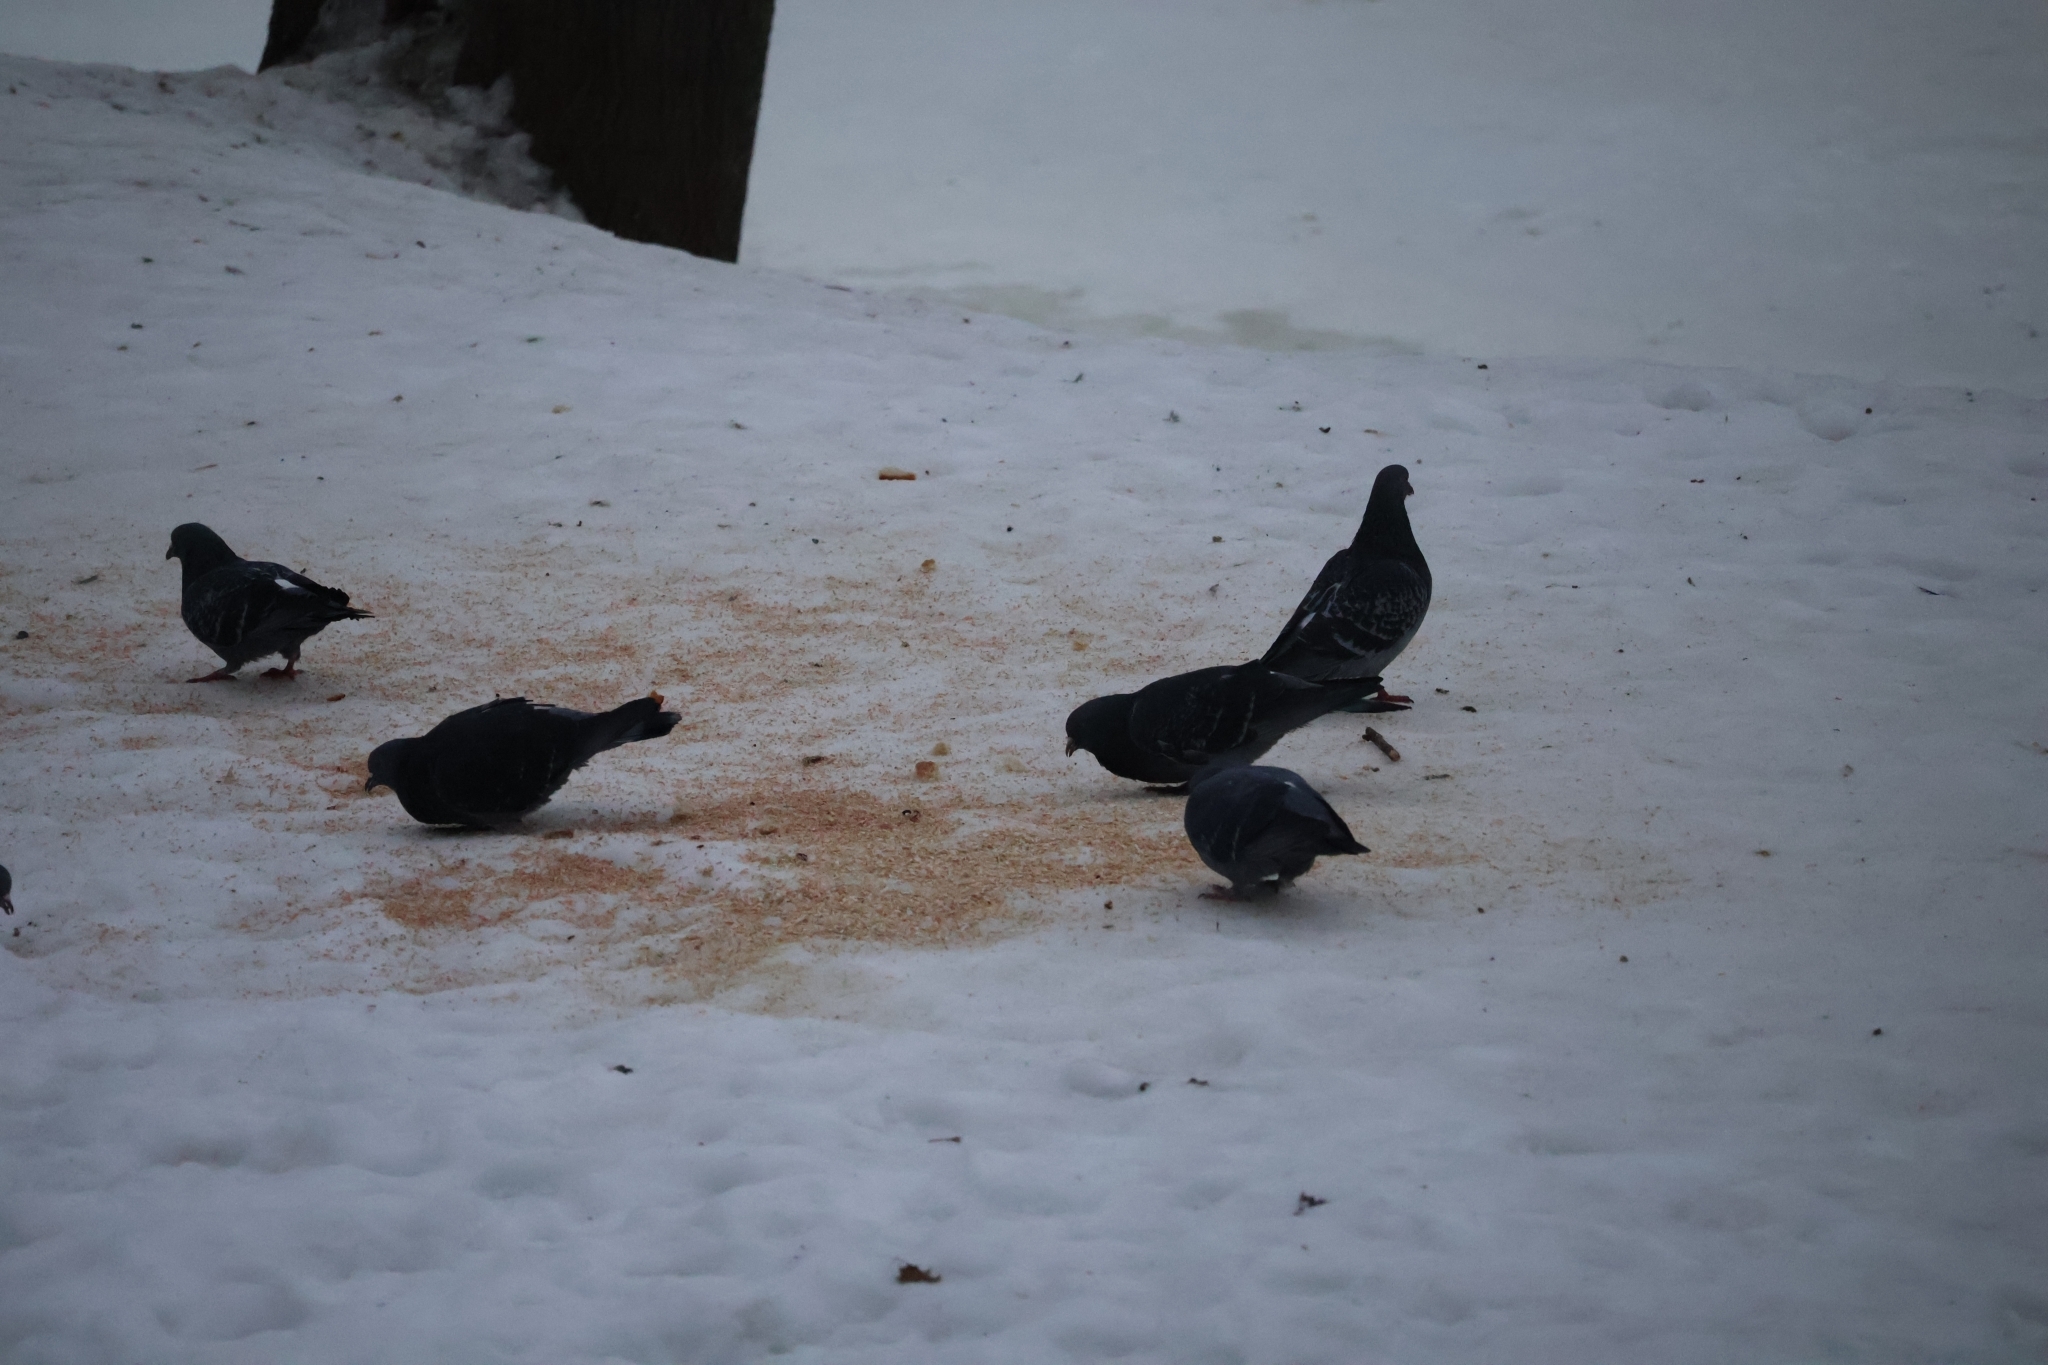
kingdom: Animalia
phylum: Chordata
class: Aves
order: Columbiformes
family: Columbidae
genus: Columba
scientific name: Columba livia
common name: Rock pigeon
